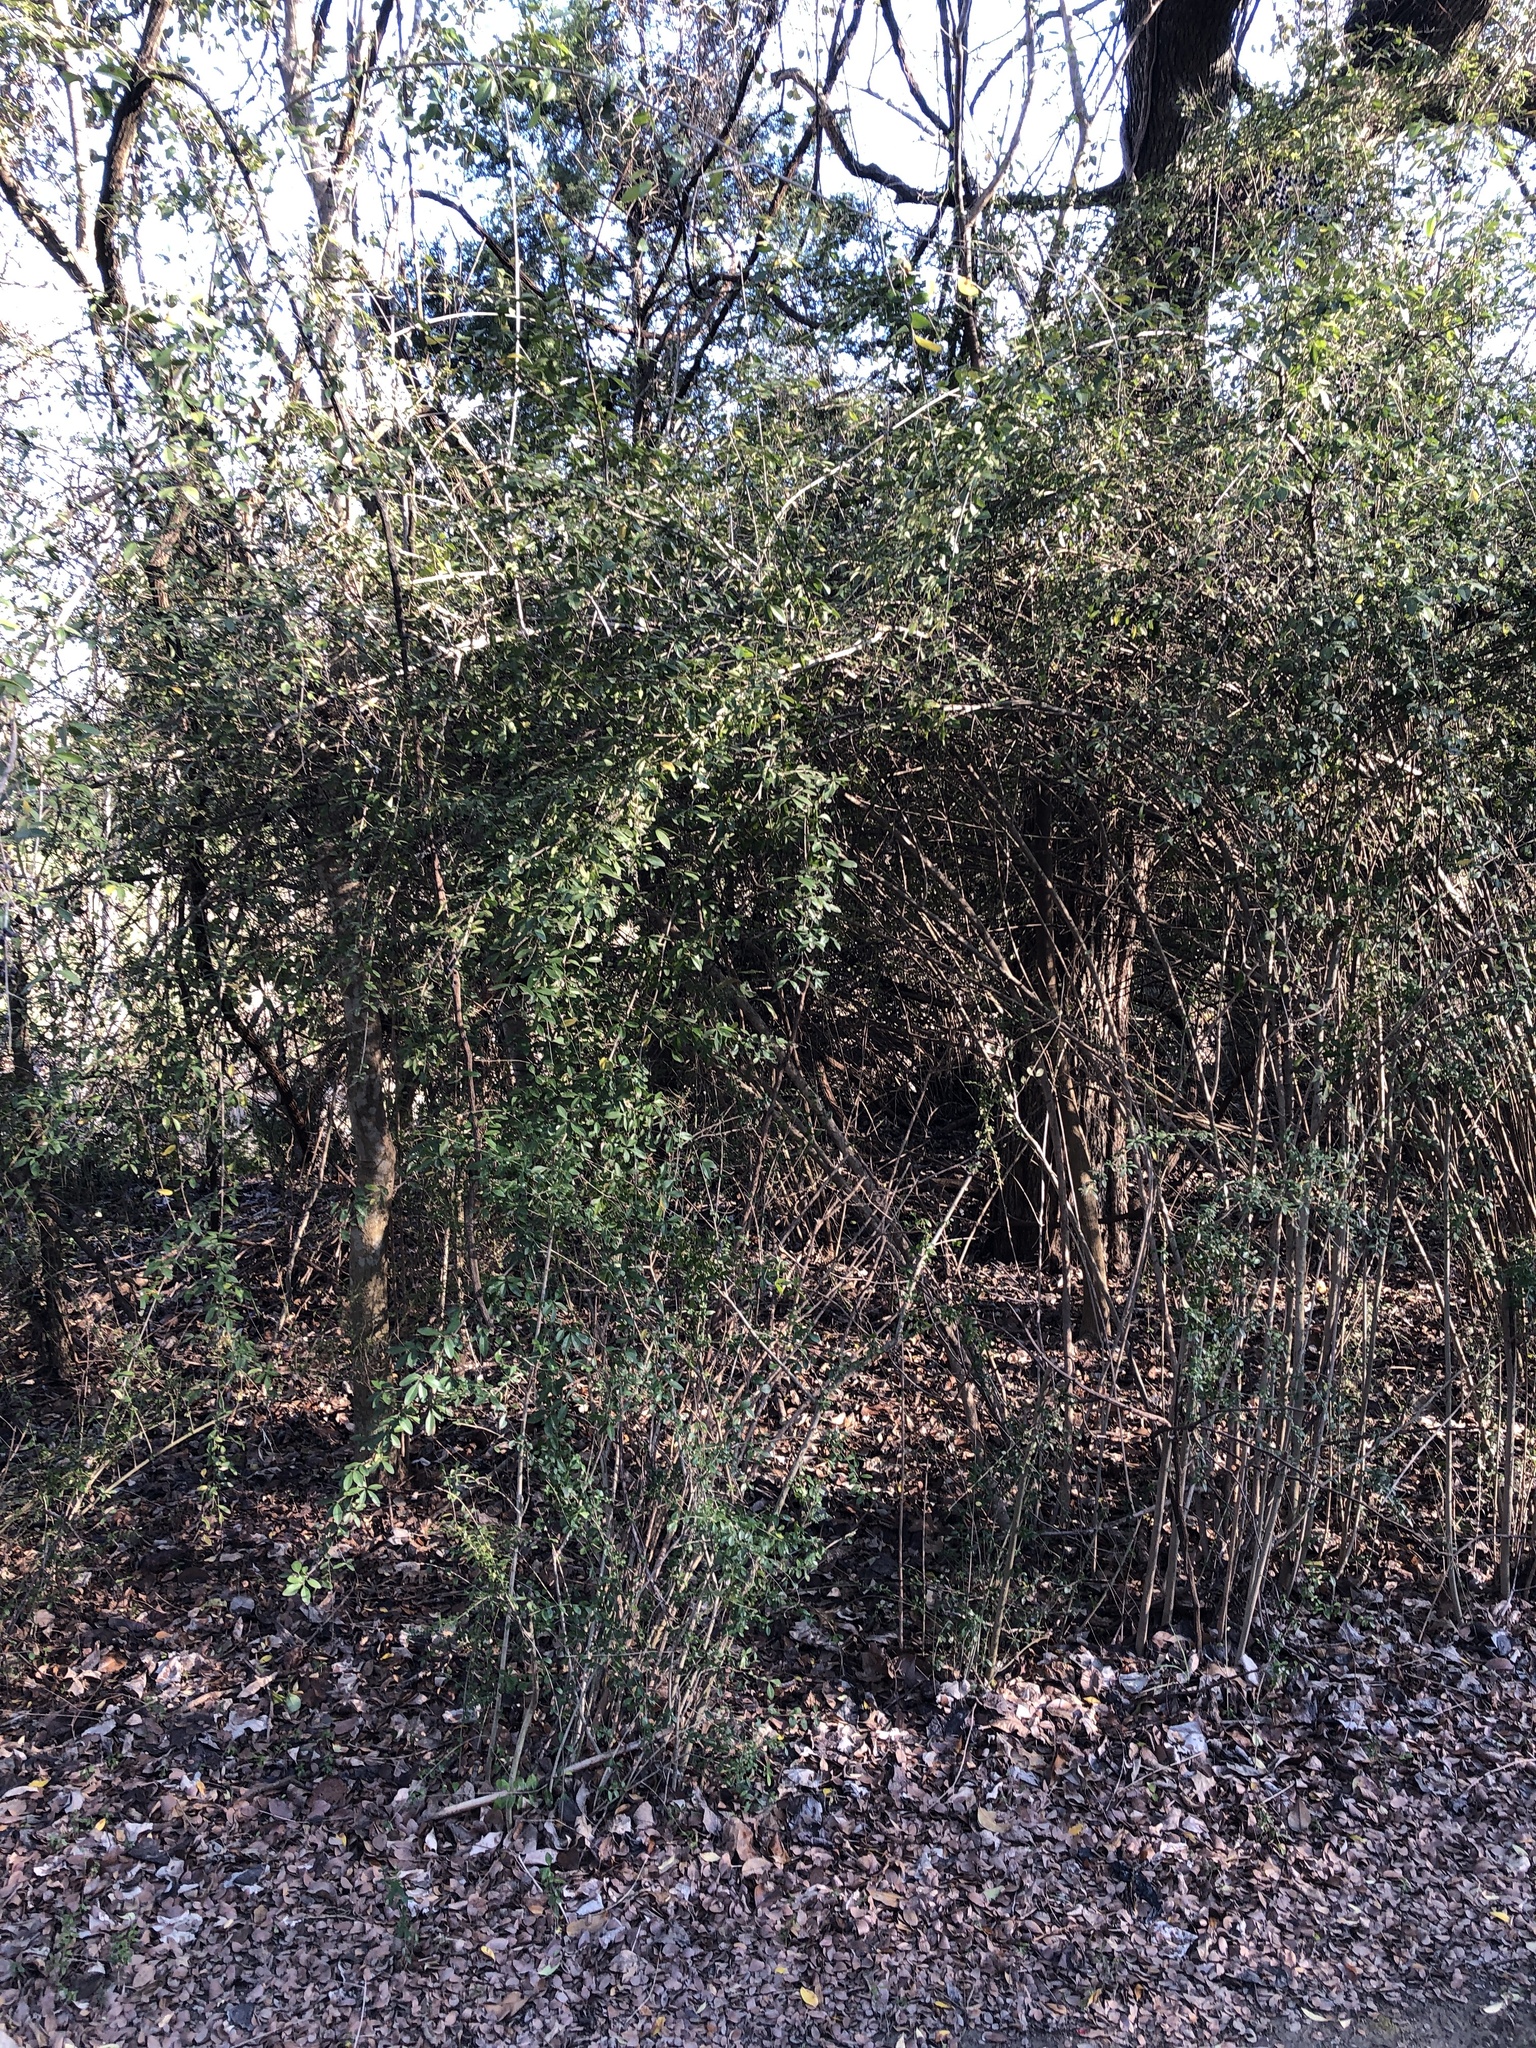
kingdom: Plantae
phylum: Tracheophyta
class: Magnoliopsida
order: Lamiales
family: Oleaceae
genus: Ligustrum
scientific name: Ligustrum quihoui
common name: Waxyleaf privet
